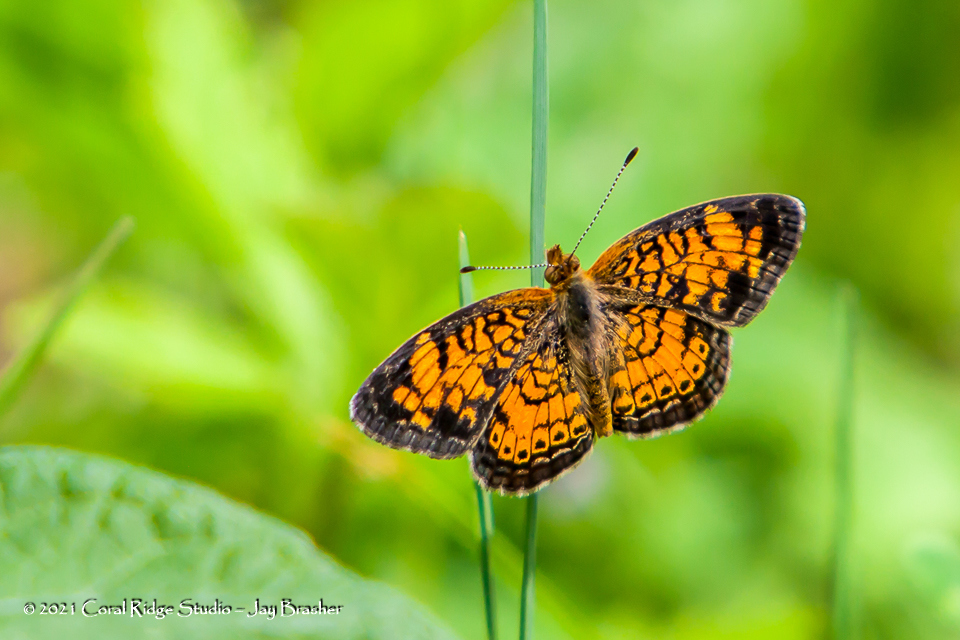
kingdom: Animalia
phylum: Arthropoda
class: Insecta
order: Lepidoptera
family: Nymphalidae
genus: Phyciodes
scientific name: Phyciodes tharos
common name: Pearl crescent
